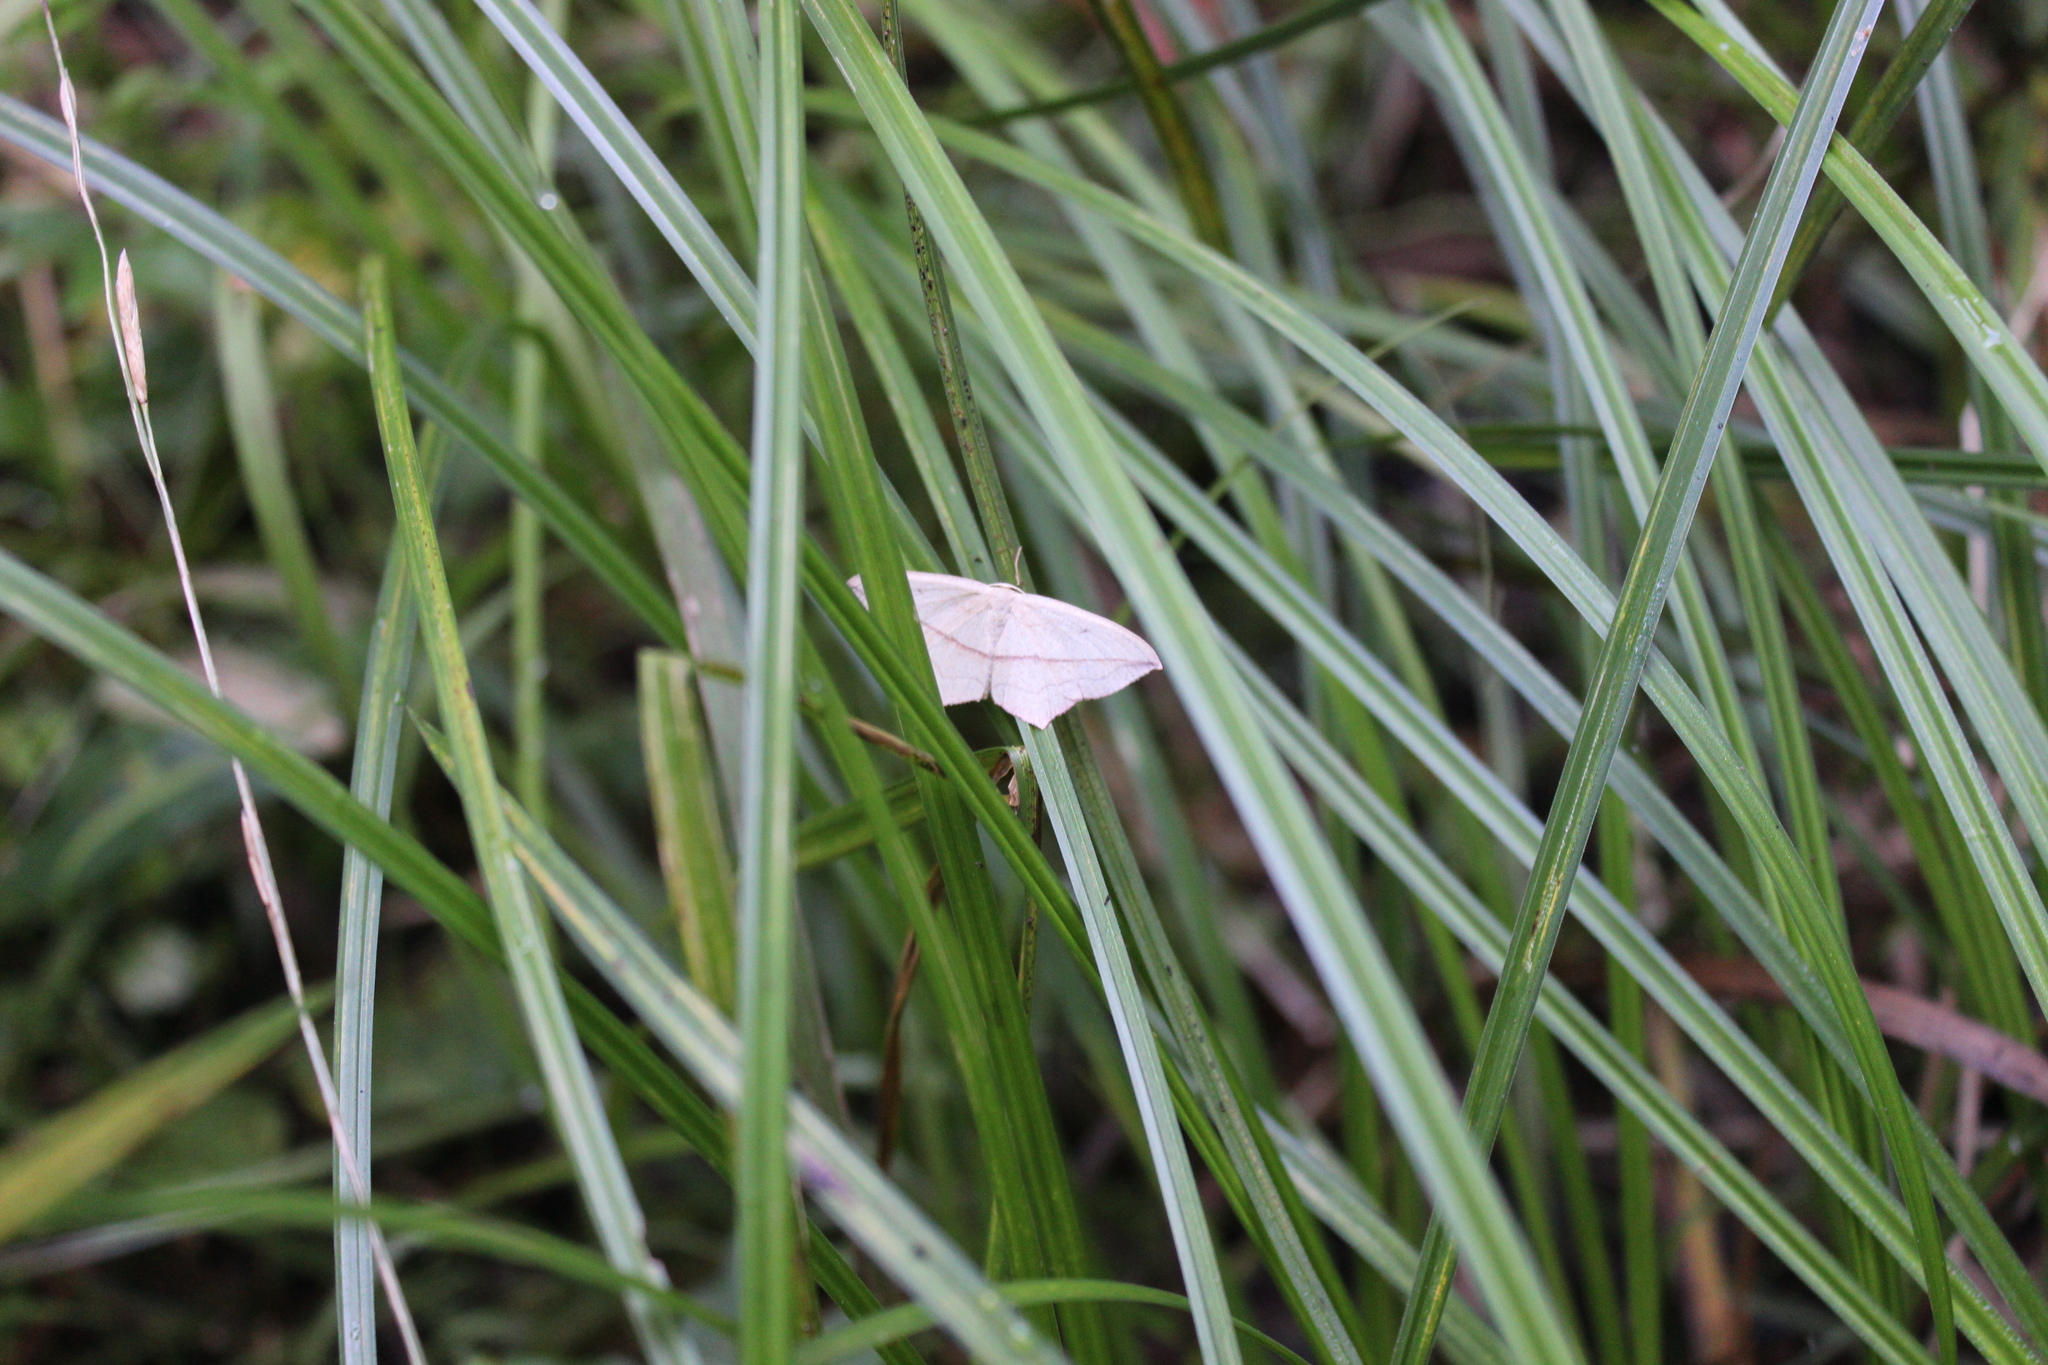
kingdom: Animalia
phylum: Arthropoda
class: Insecta
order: Lepidoptera
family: Geometridae
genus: Timandra
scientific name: Timandra comae
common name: Blood-vein
